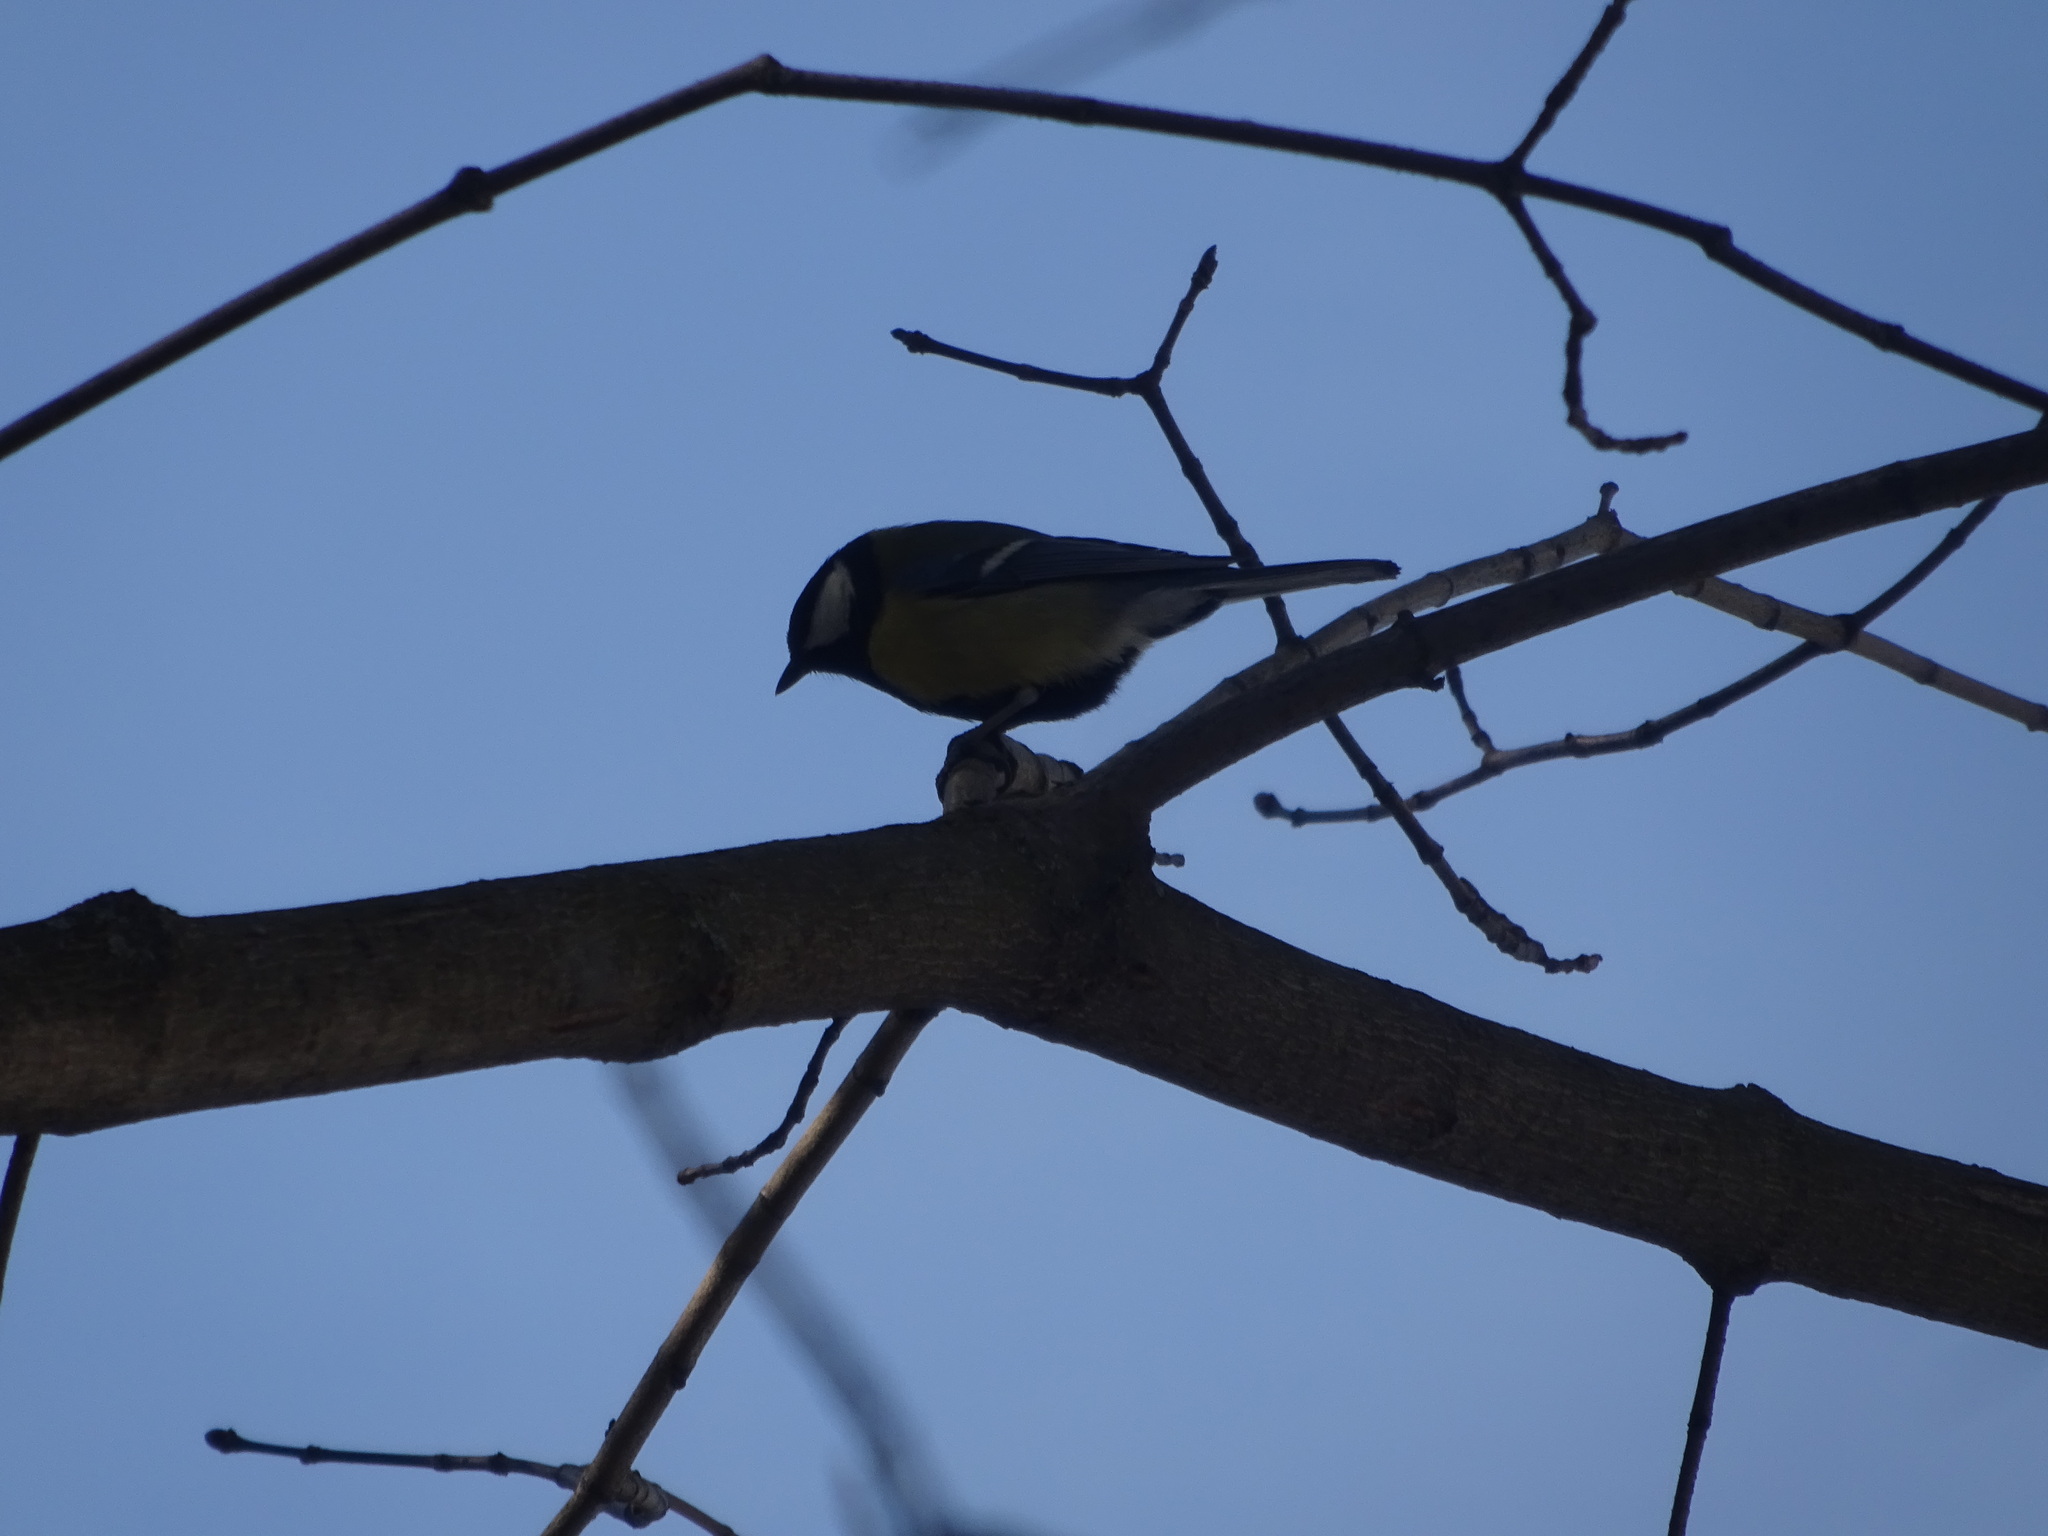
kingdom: Animalia
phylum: Chordata
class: Aves
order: Passeriformes
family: Paridae
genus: Parus
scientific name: Parus major
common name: Great tit
